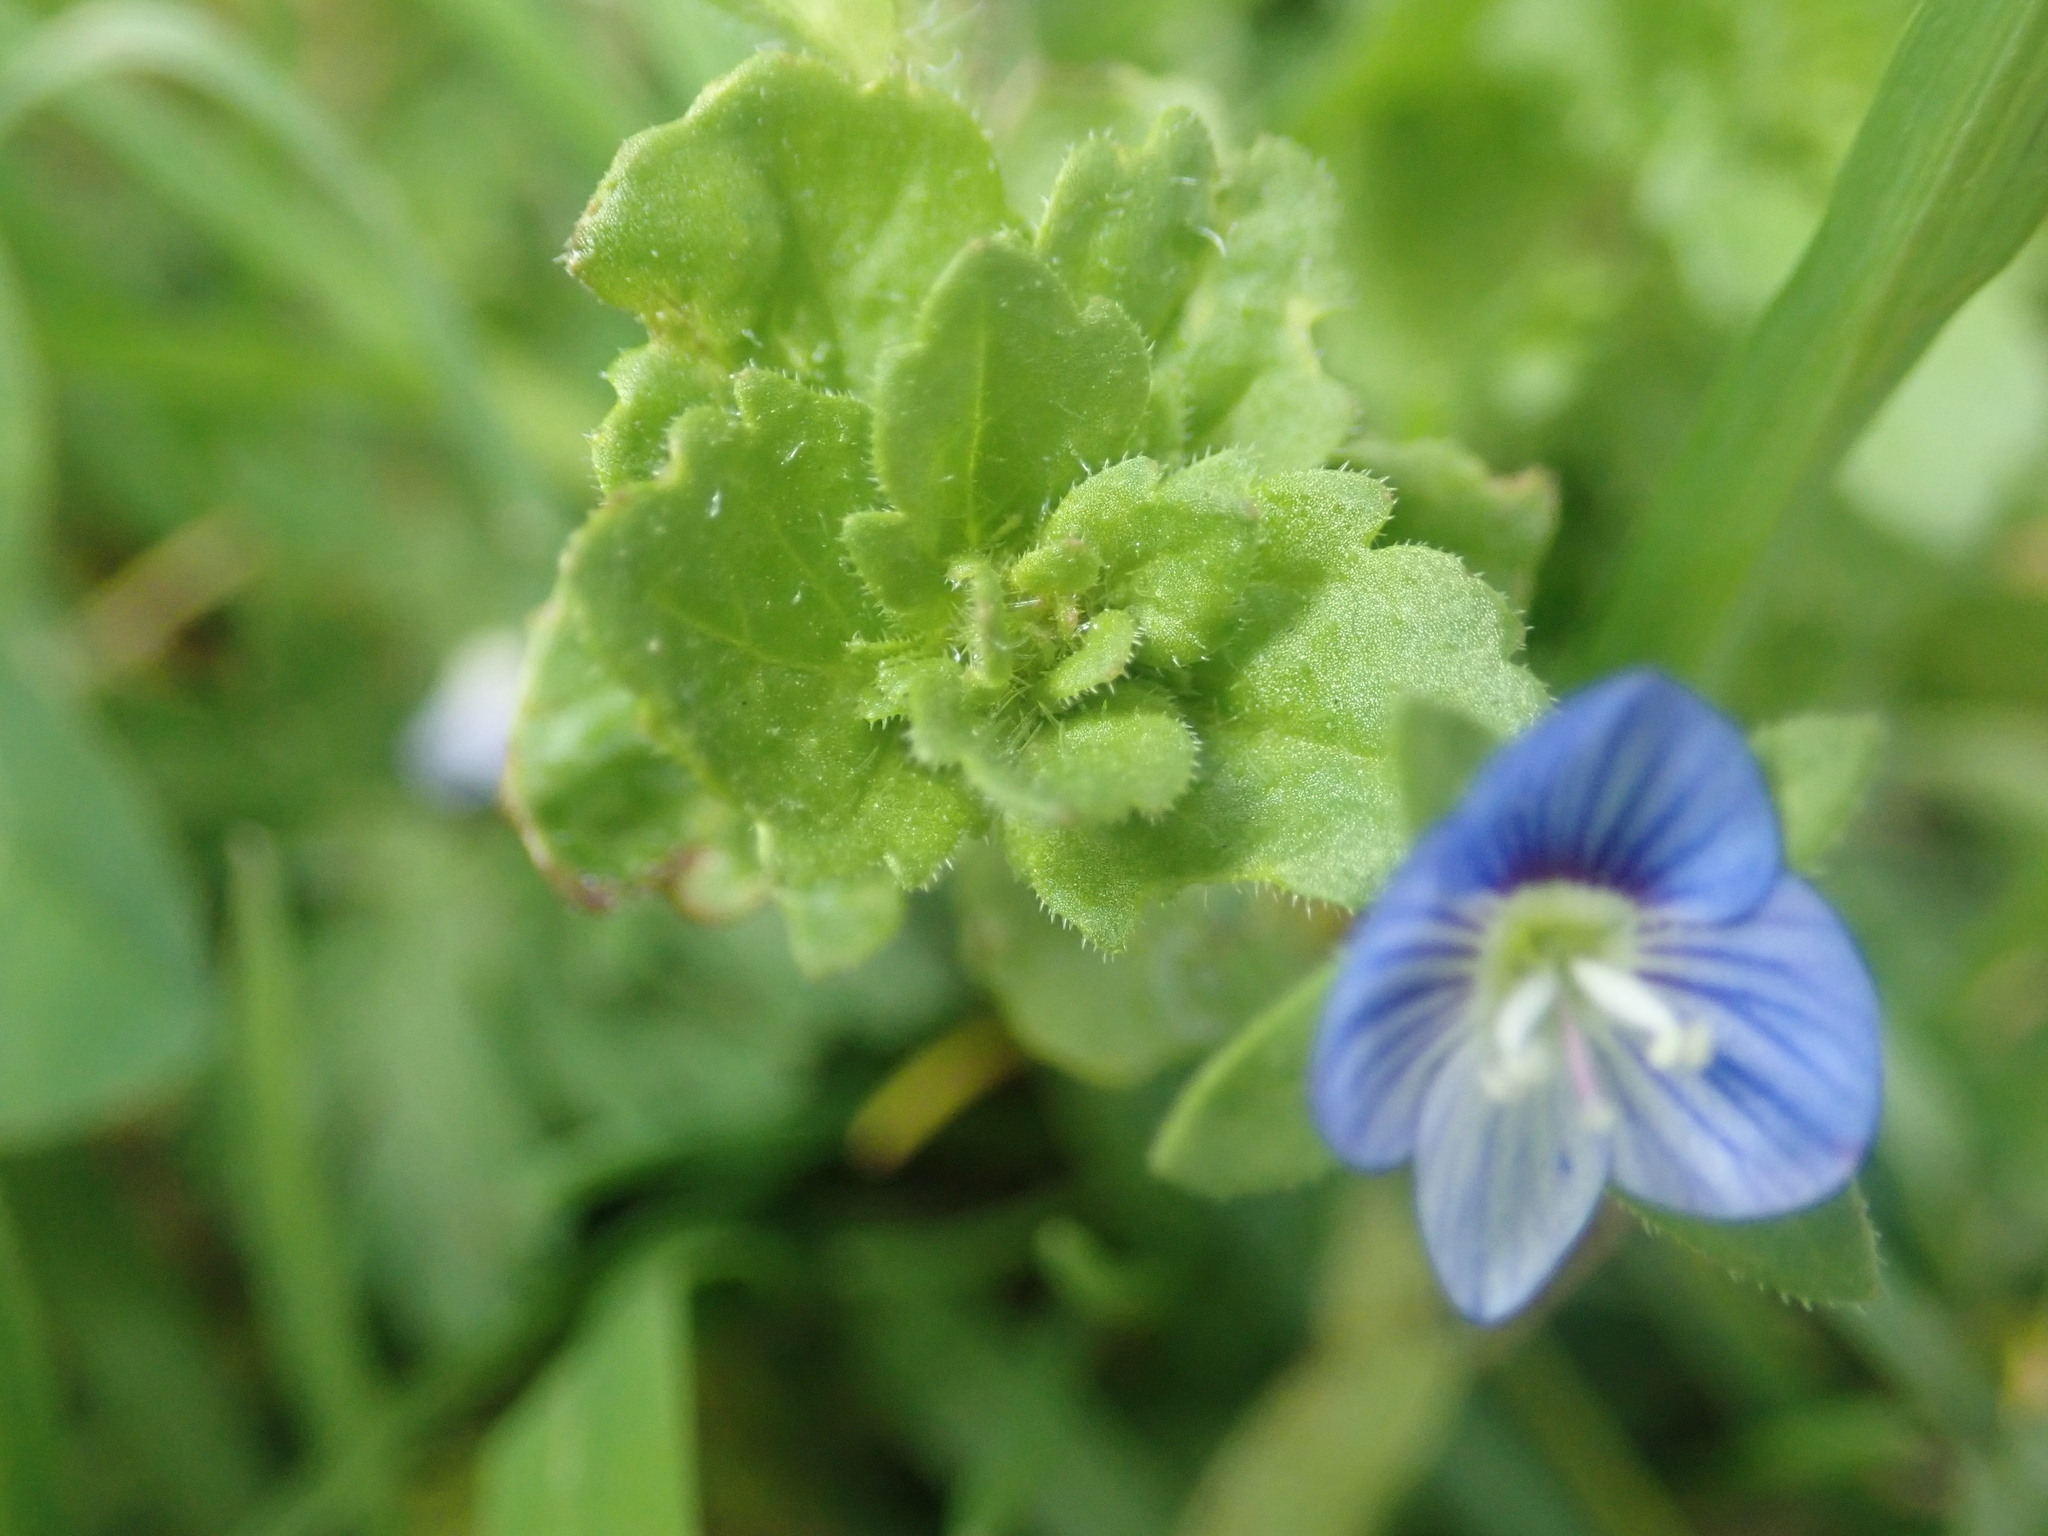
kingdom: Plantae
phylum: Tracheophyta
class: Magnoliopsida
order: Lamiales
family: Plantaginaceae
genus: Veronica
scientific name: Veronica persica
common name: Common field-speedwell
